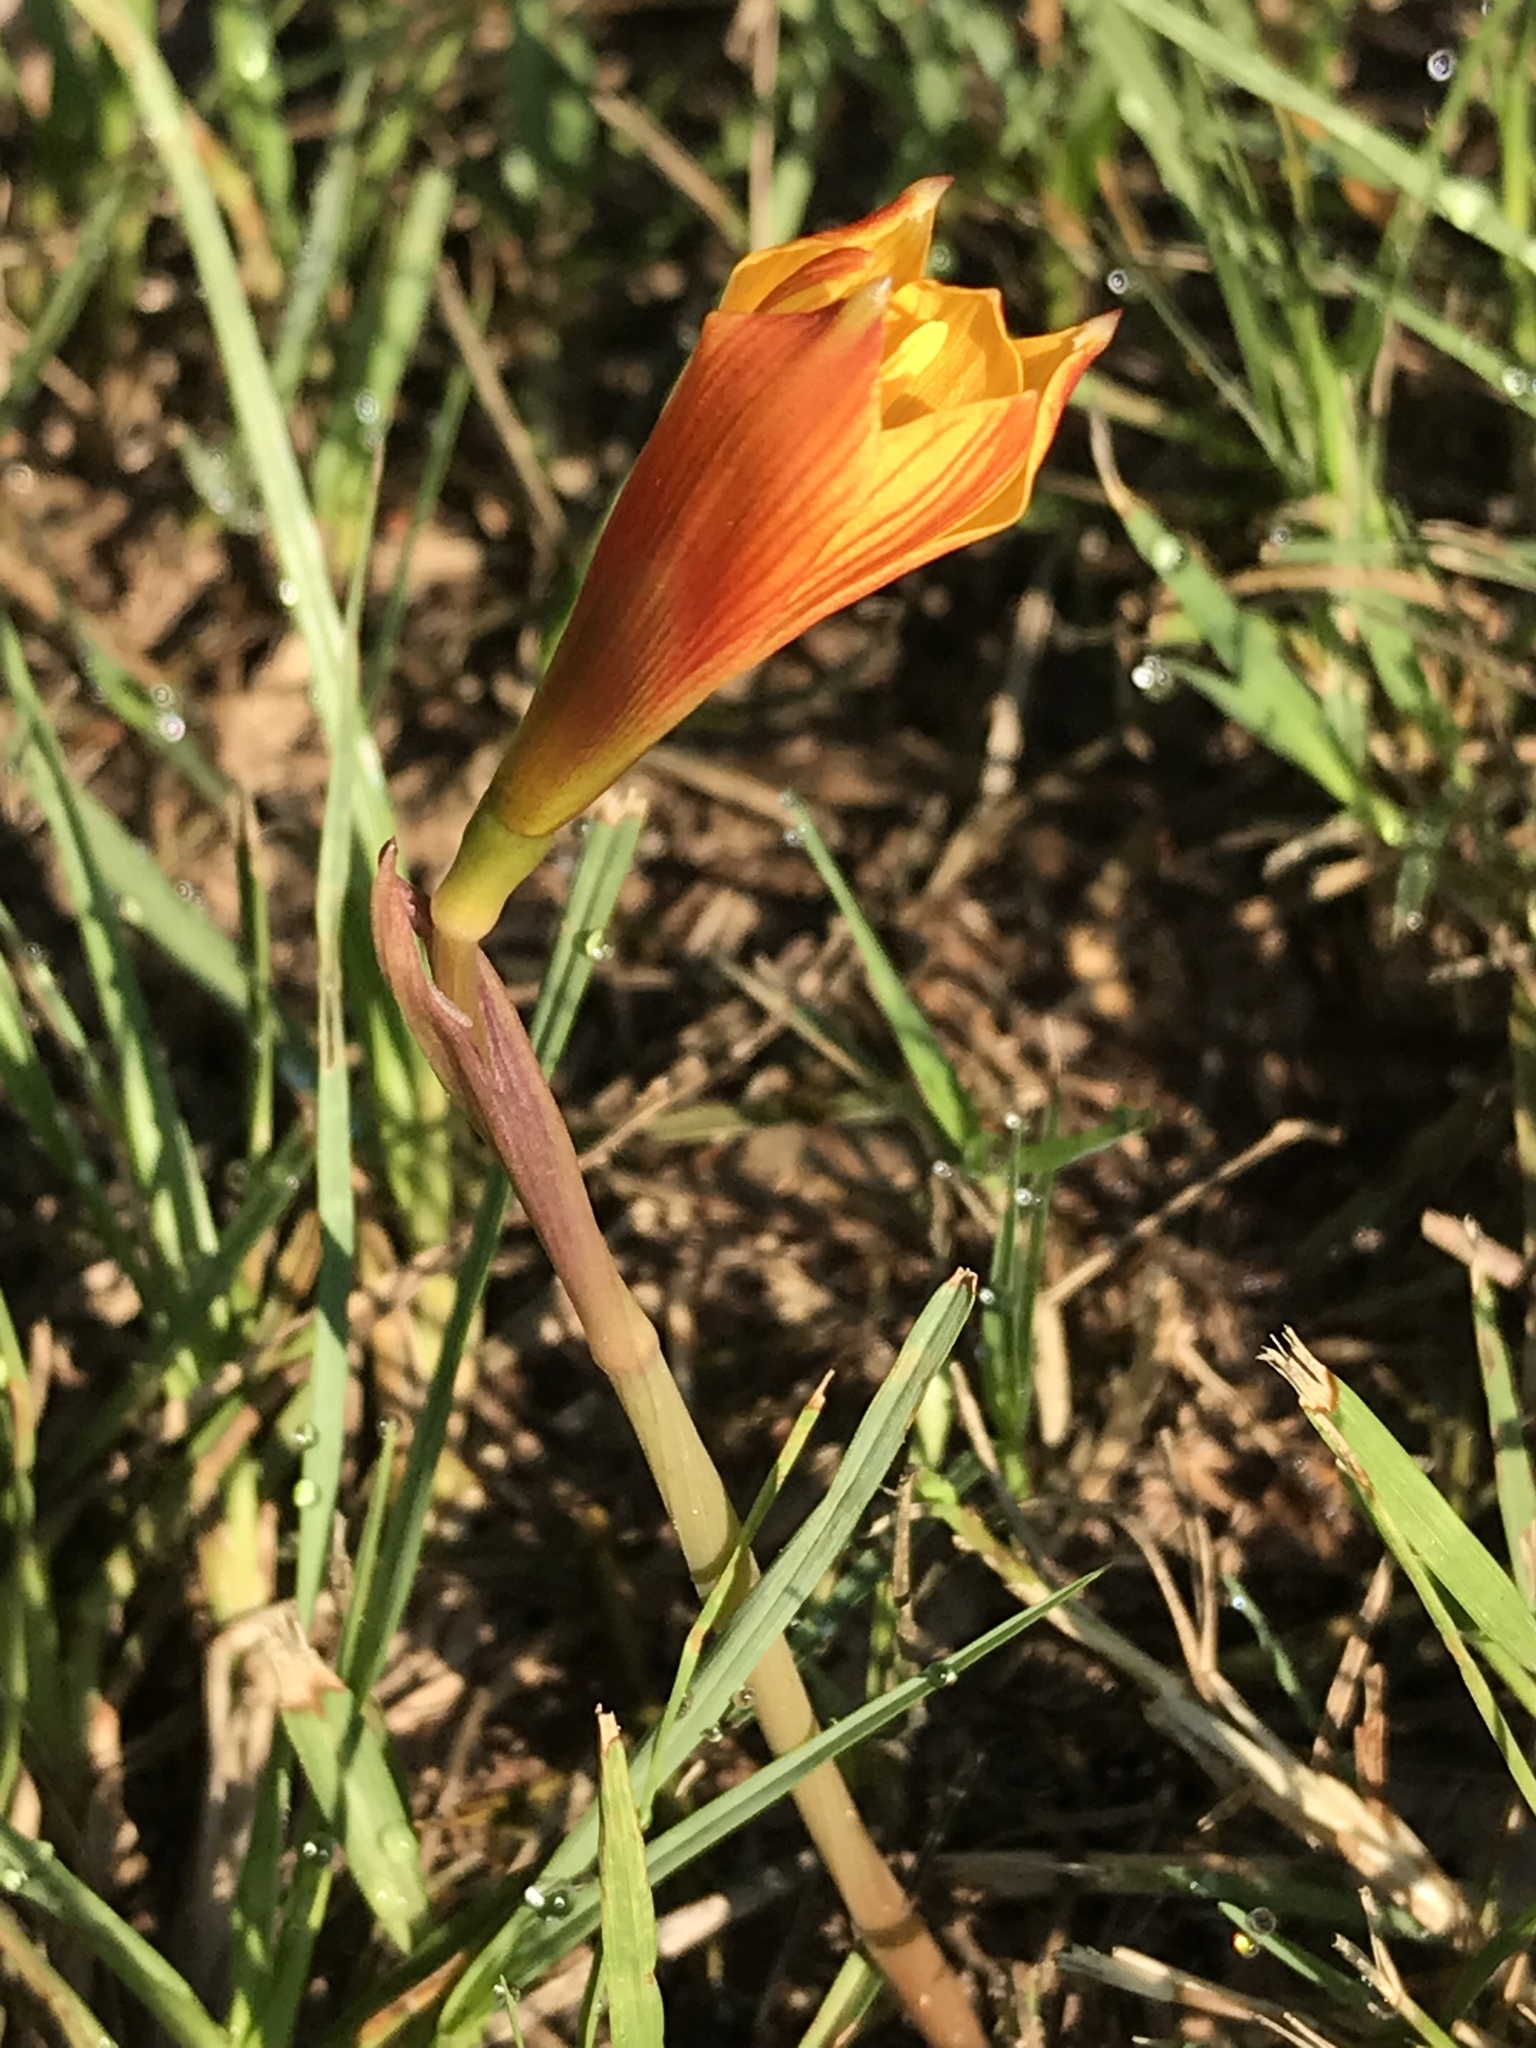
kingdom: Plantae
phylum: Tracheophyta
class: Liliopsida
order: Asparagales
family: Amaryllidaceae
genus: Zephyranthes
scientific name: Zephyranthes tubispatha
